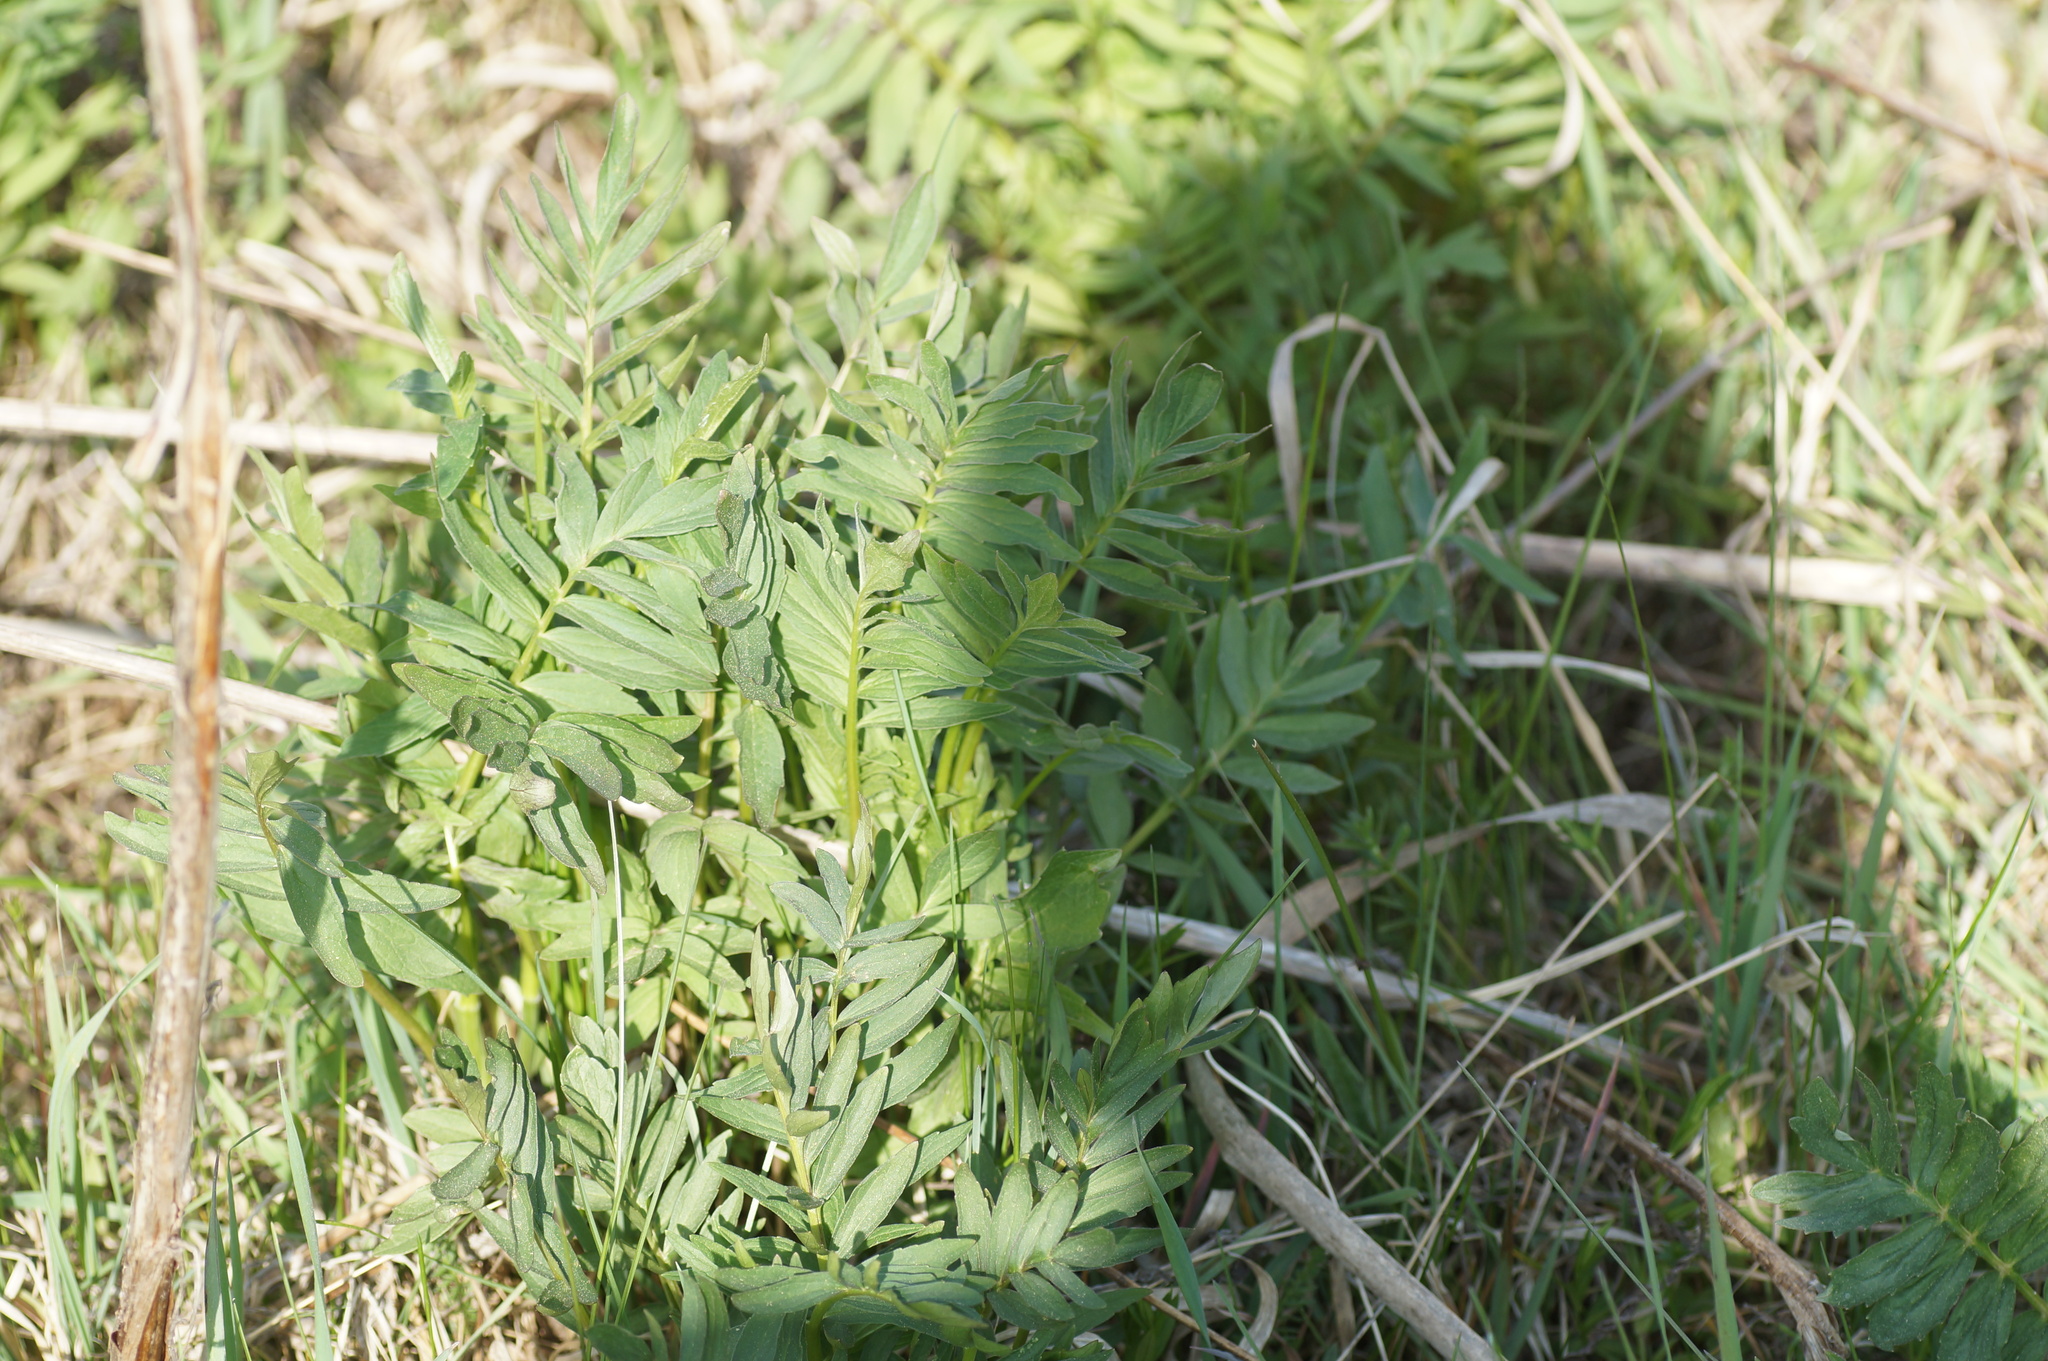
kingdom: Plantae
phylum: Tracheophyta
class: Magnoliopsida
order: Dipsacales
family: Caprifoliaceae
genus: Valeriana
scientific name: Valeriana officinalis
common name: Common valerian
